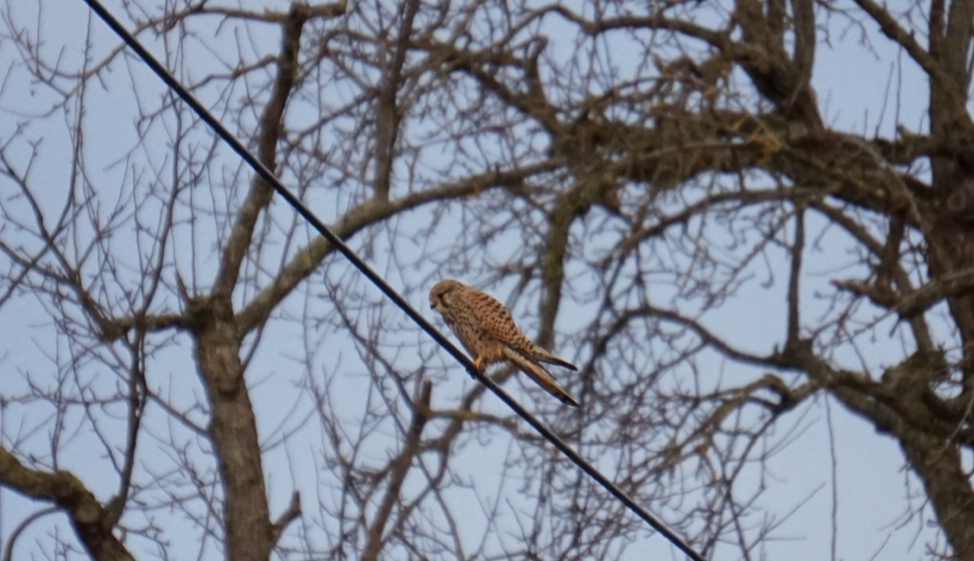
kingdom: Animalia
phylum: Chordata
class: Aves
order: Falconiformes
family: Falconidae
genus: Falco
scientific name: Falco tinnunculus
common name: Common kestrel
